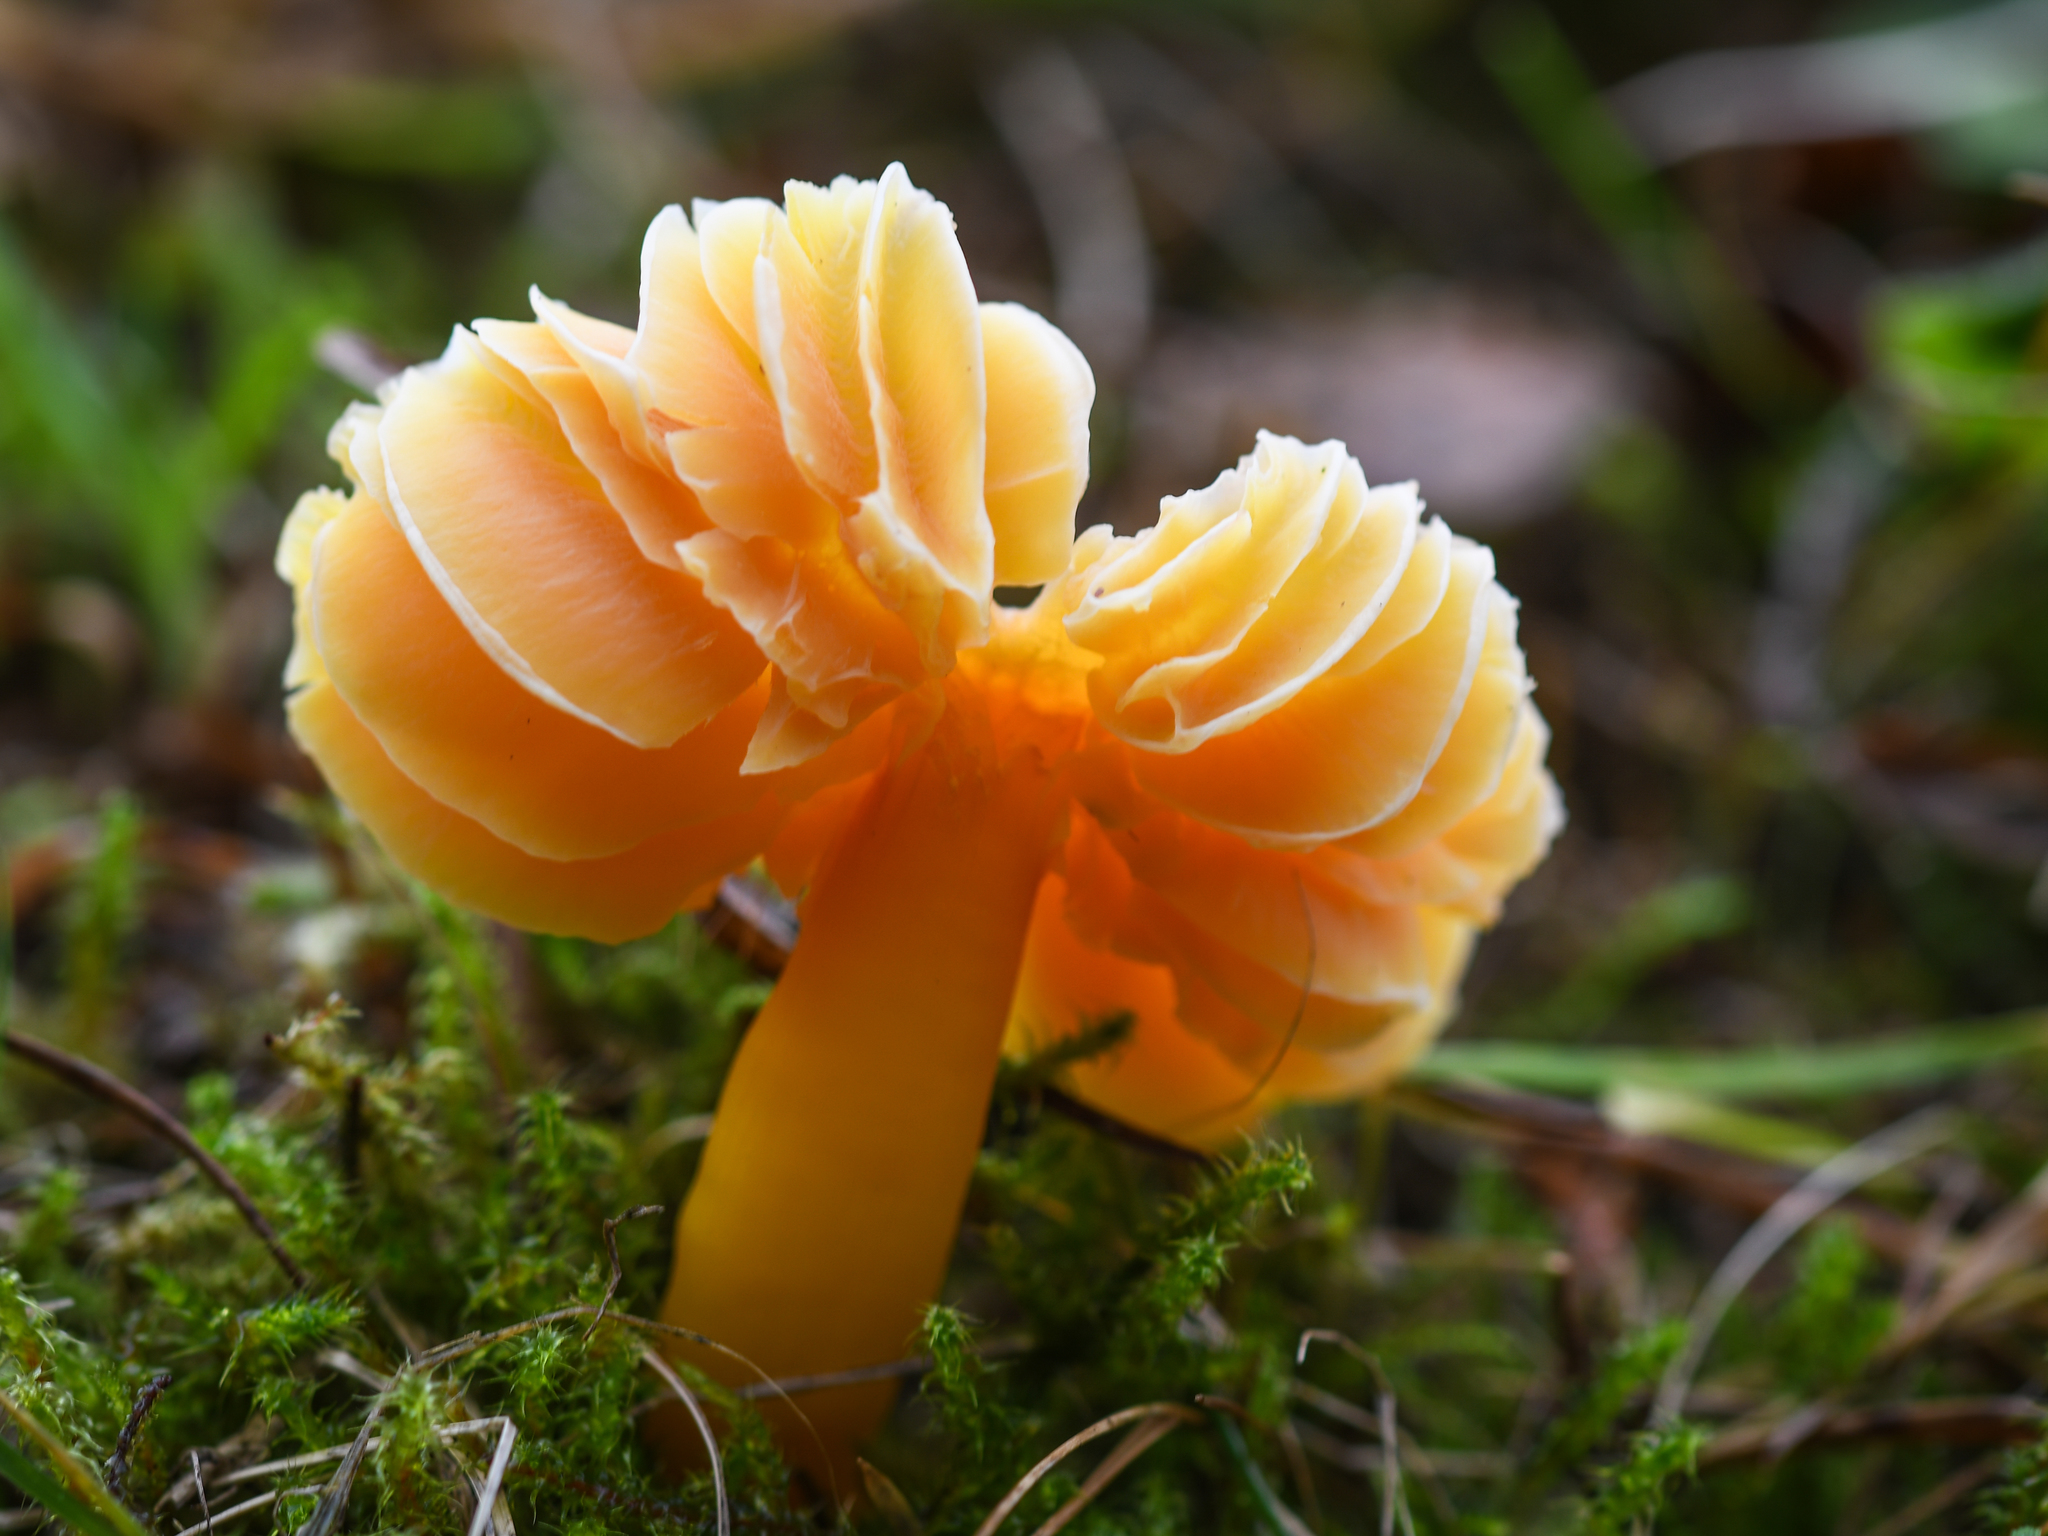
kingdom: Fungi
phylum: Basidiomycota
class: Agaricomycetes
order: Agaricales
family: Hygrophoraceae
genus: Hygrocybe
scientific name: Hygrocybe quieta
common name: Oily waxcap
